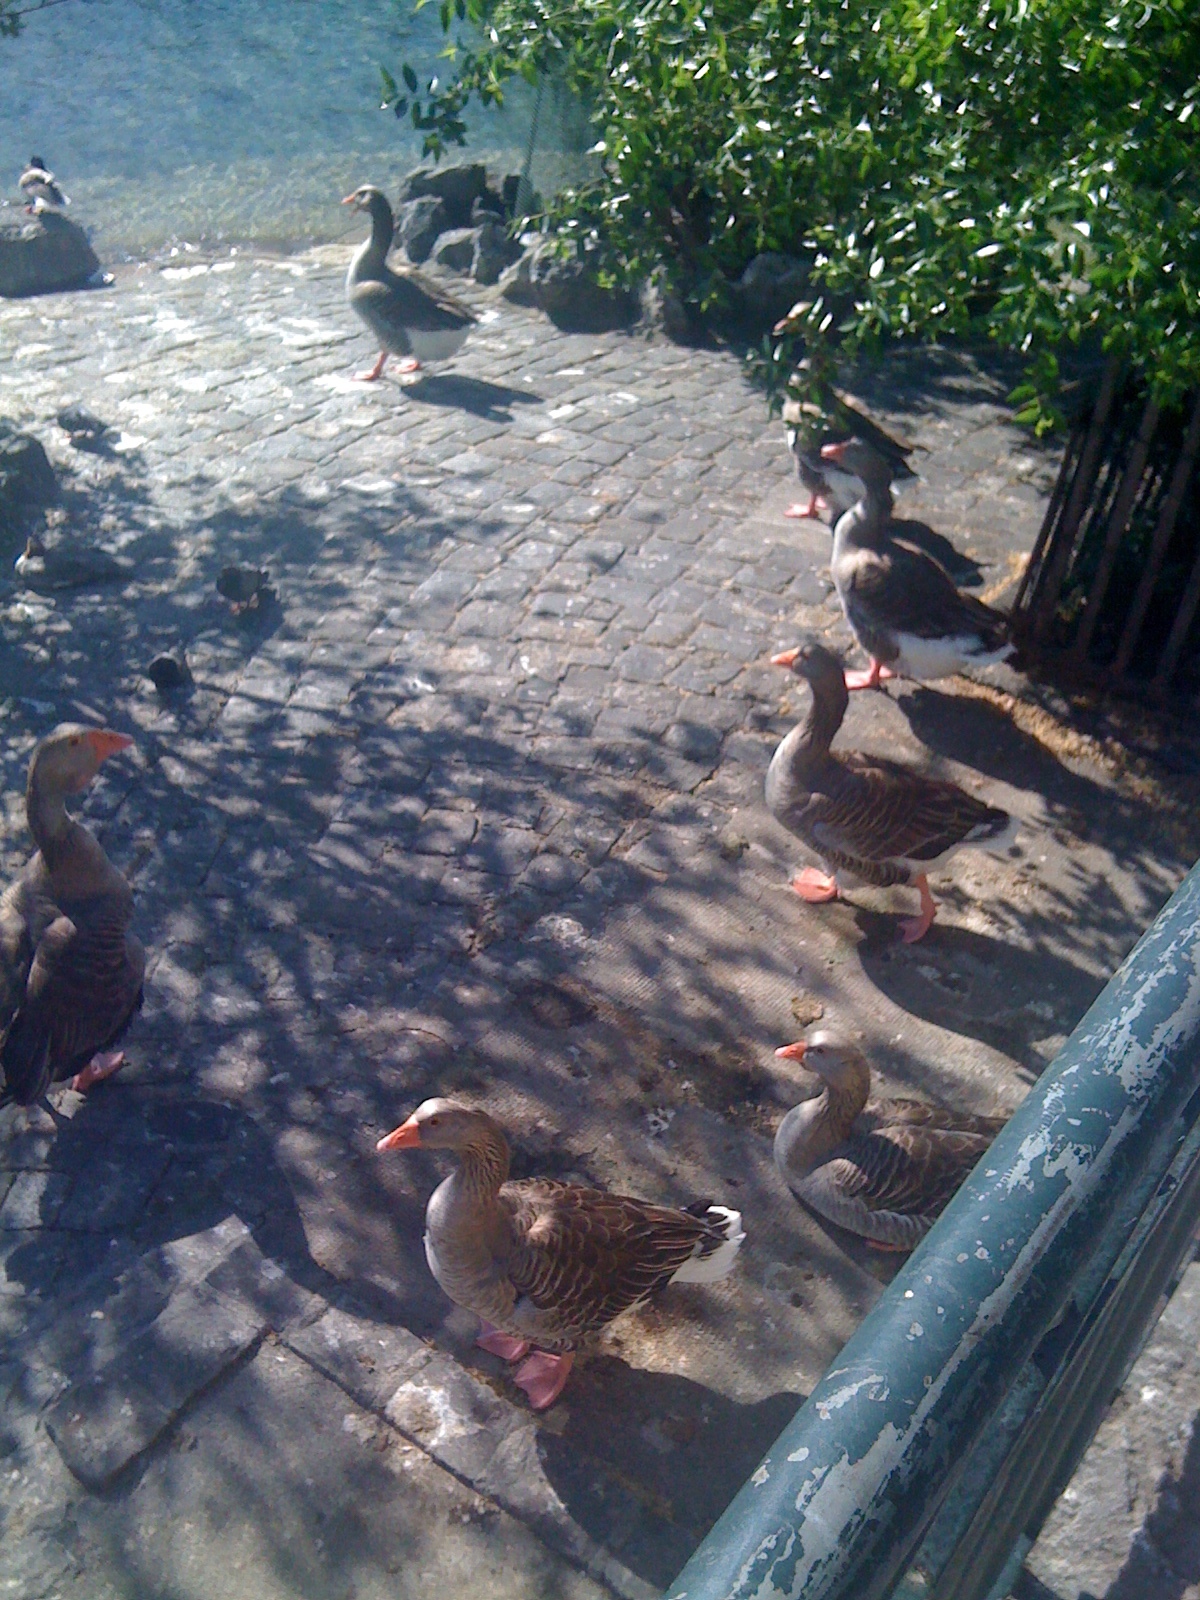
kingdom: Animalia
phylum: Chordata
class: Aves
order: Anseriformes
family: Anatidae
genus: Anser
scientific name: Anser anser
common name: Greylag goose
